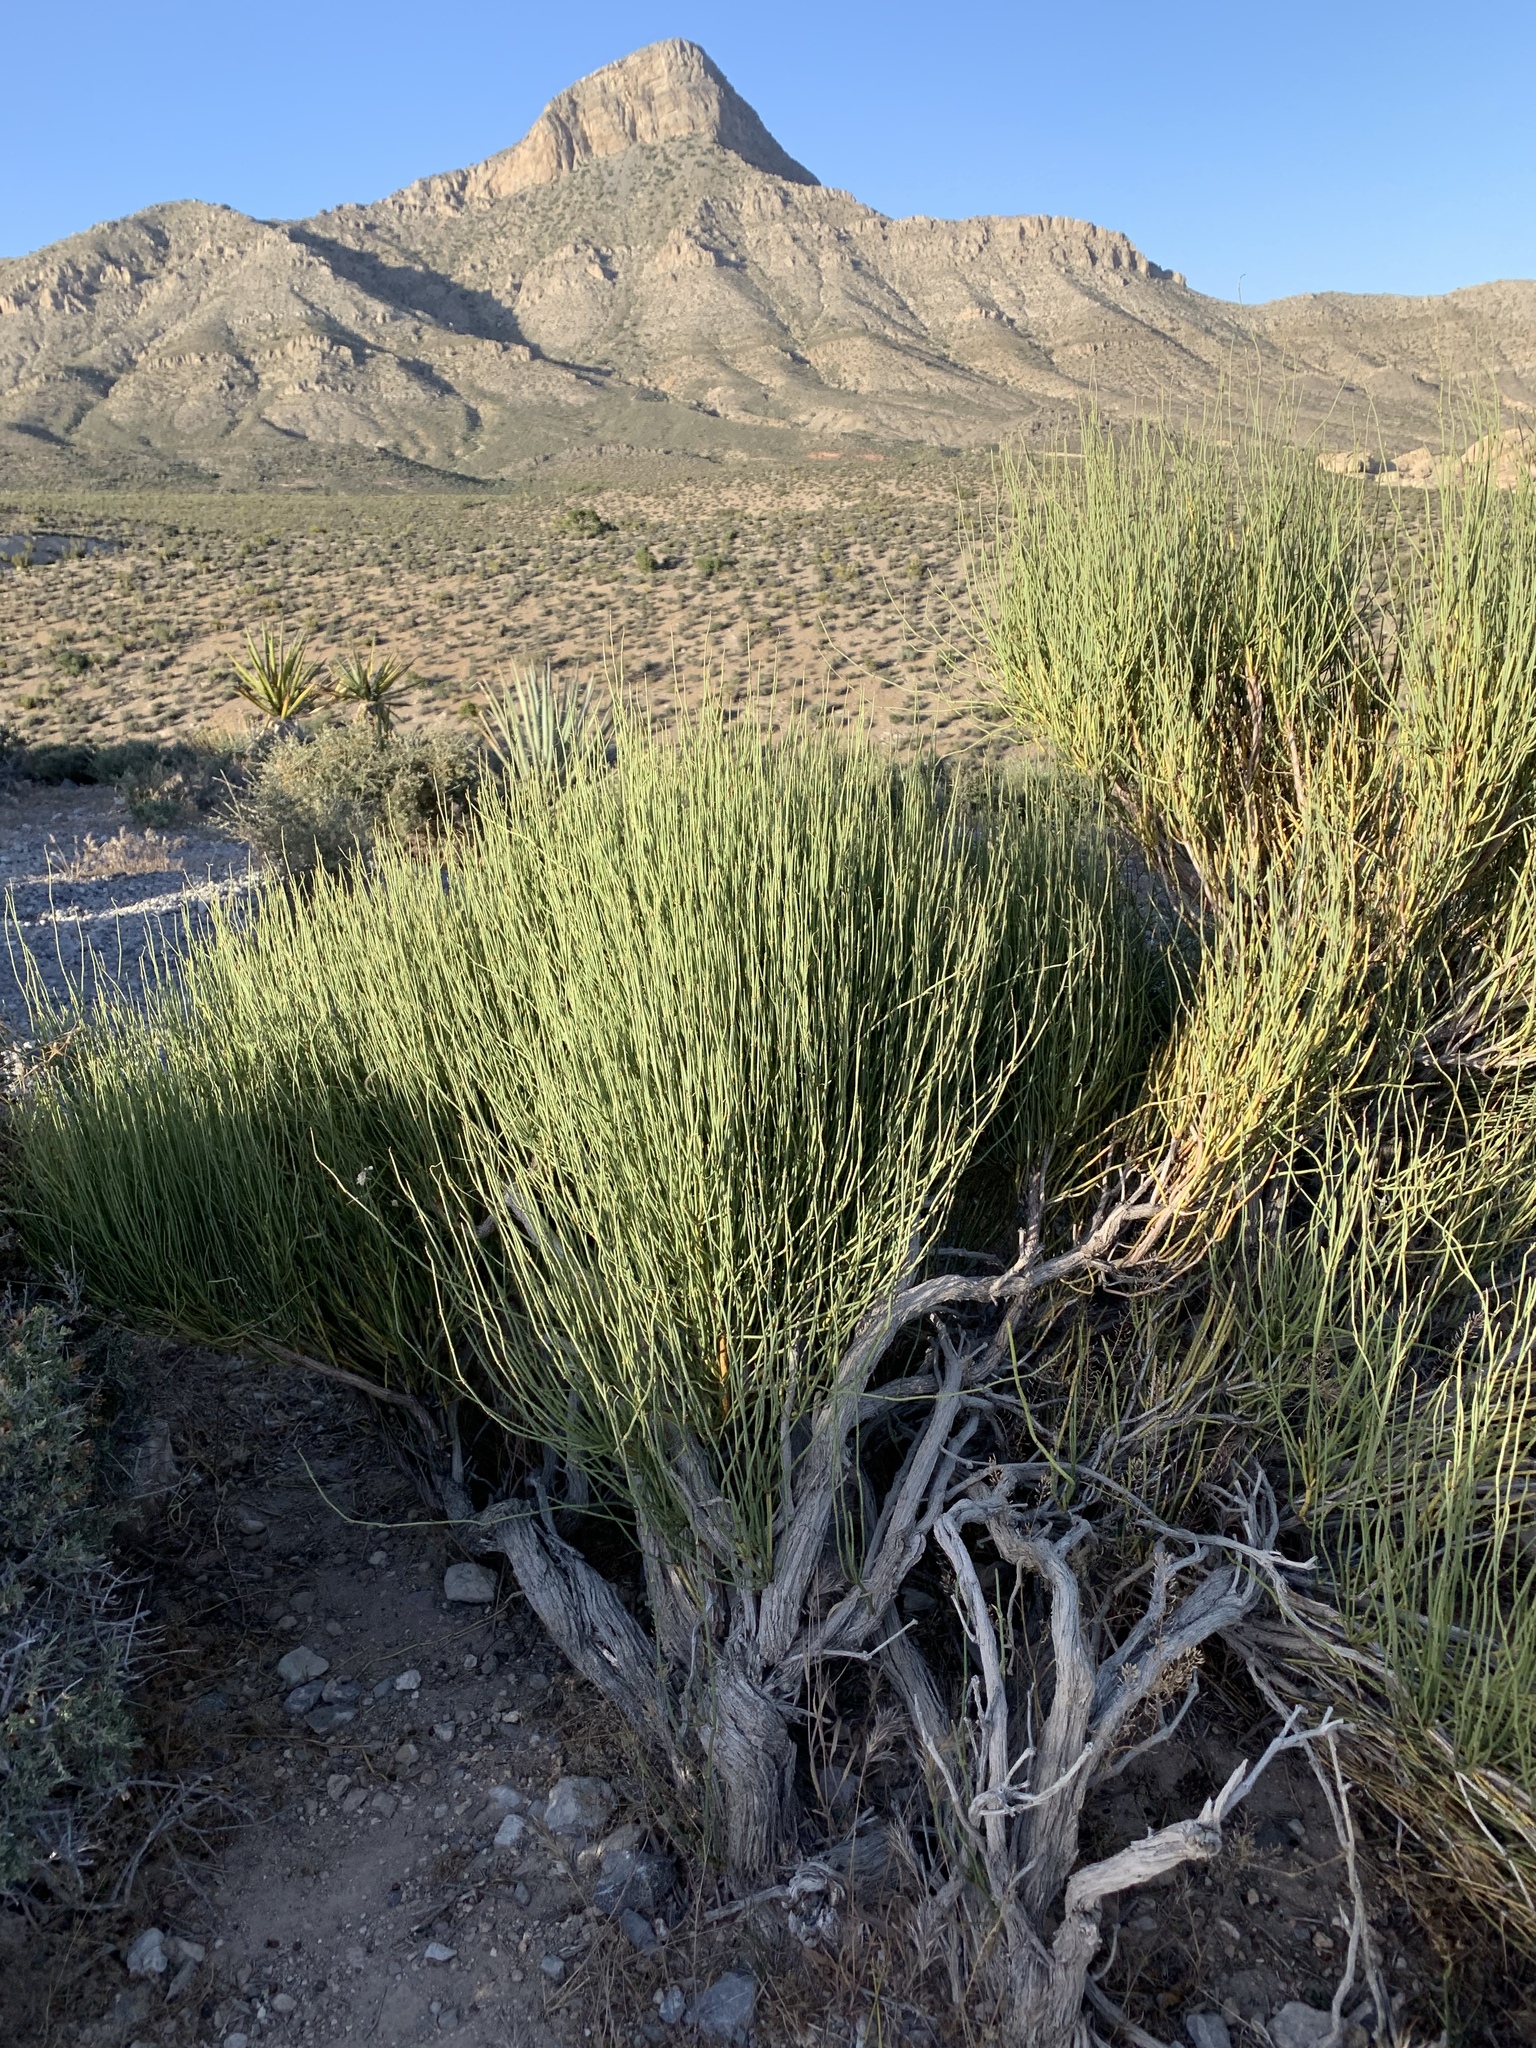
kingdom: Plantae
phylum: Tracheophyta
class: Gnetopsida
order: Ephedrales
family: Ephedraceae
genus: Ephedra
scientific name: Ephedra viridis
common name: Green ephedra
